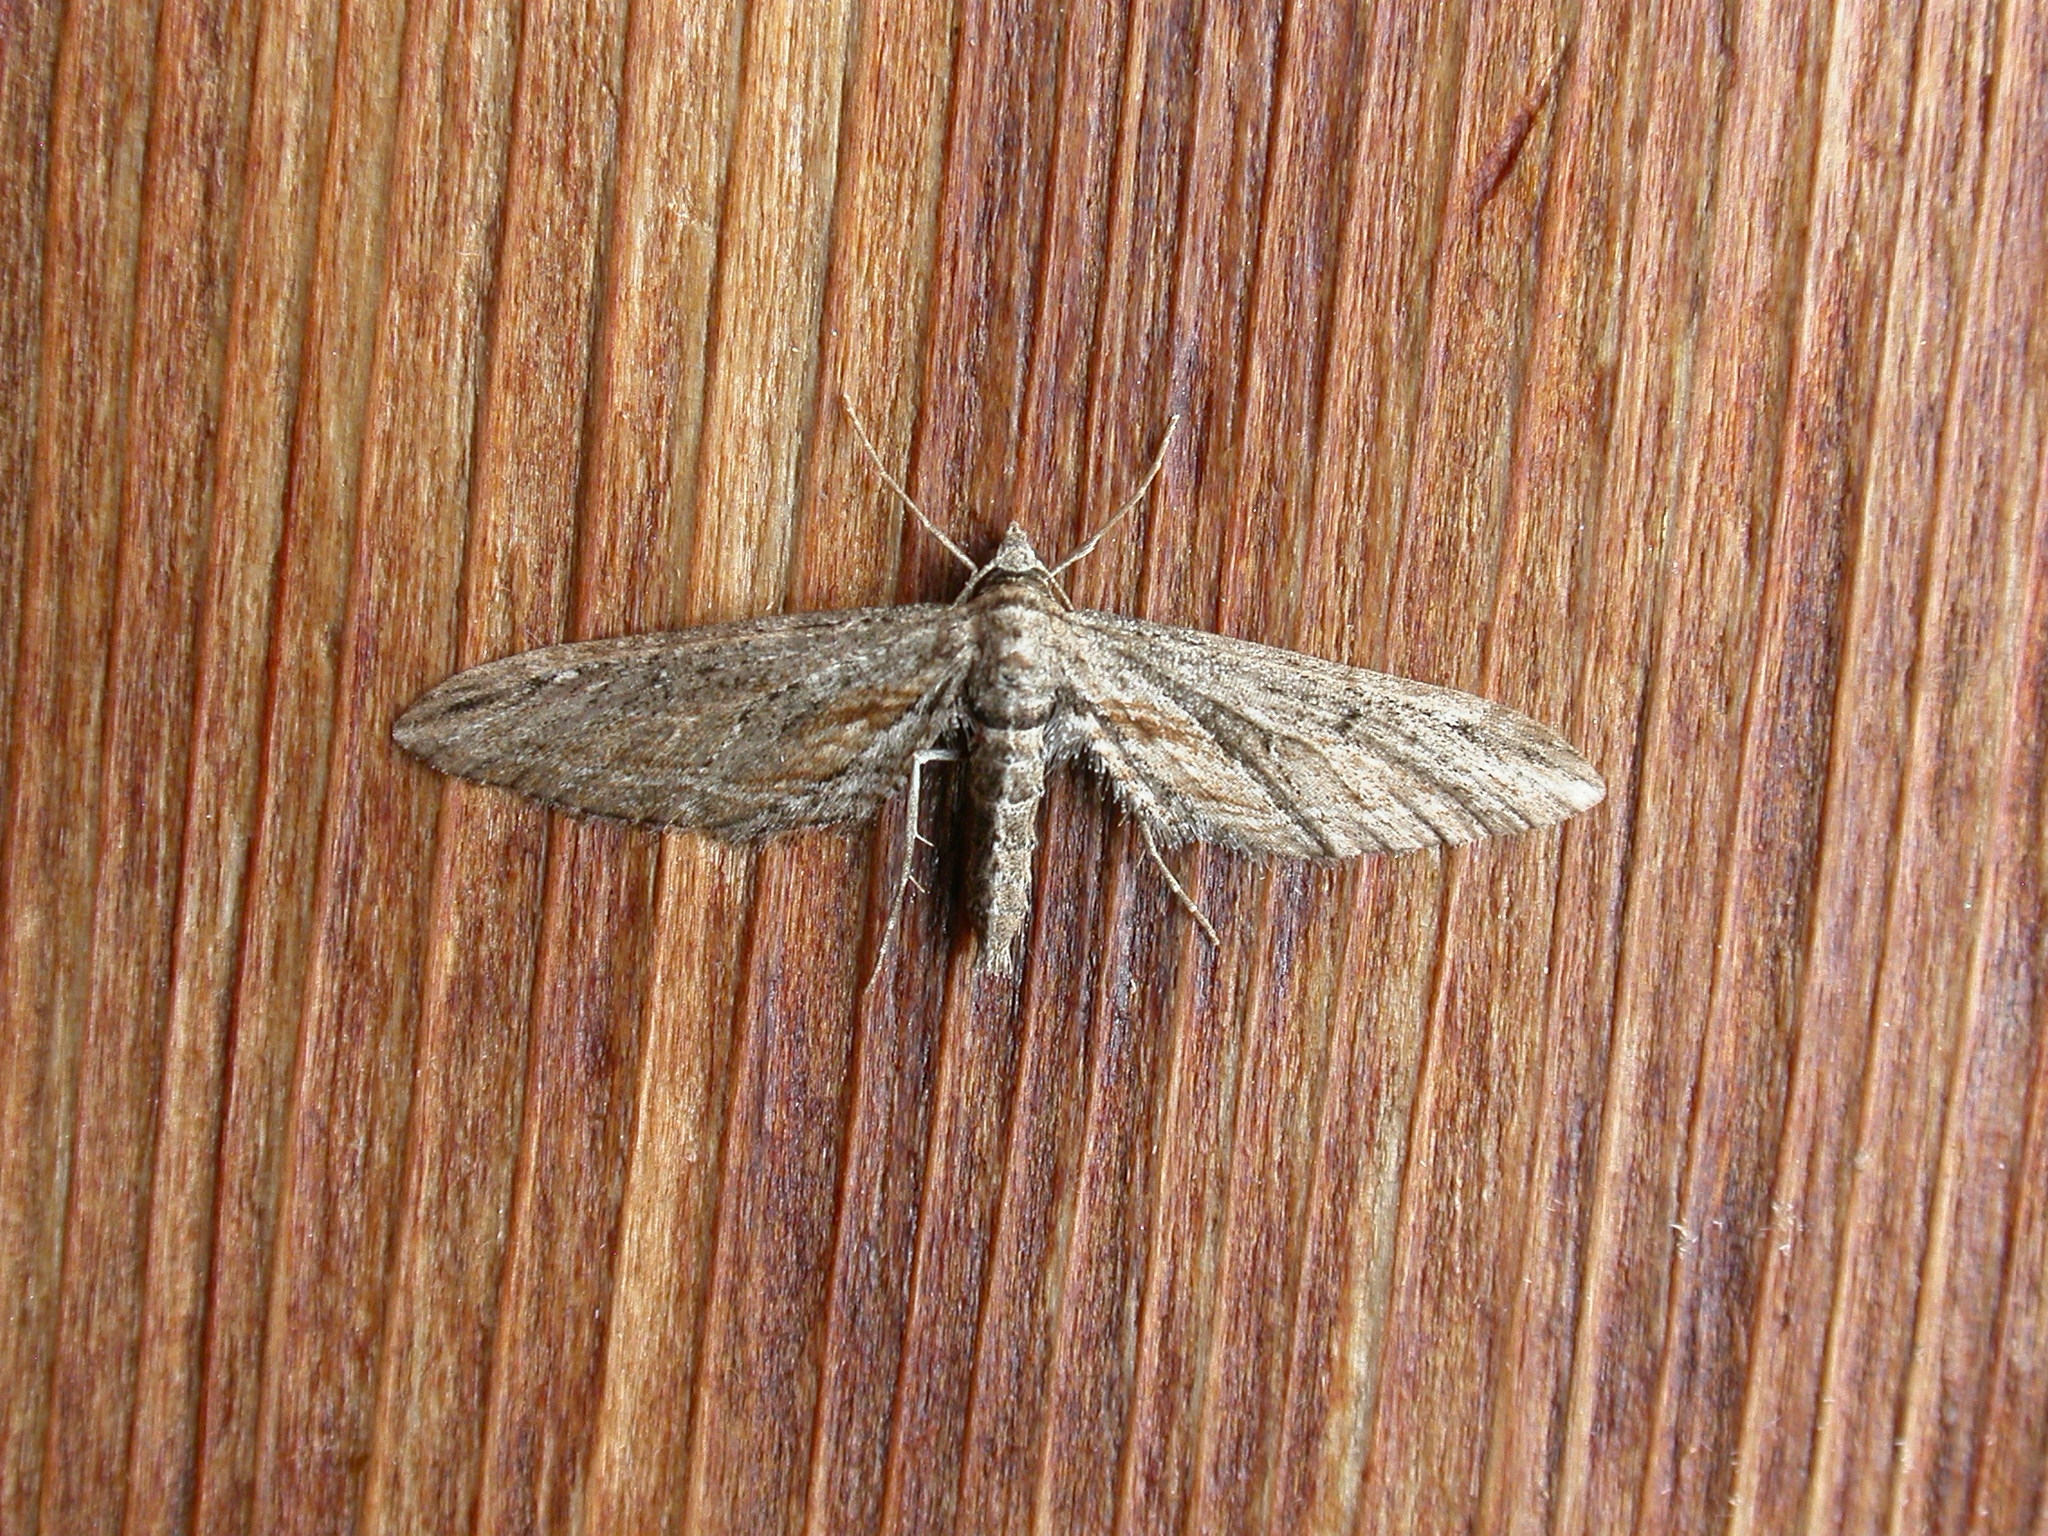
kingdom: Animalia
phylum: Arthropoda
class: Insecta
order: Lepidoptera
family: Geometridae
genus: Eupithecia
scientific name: Eupithecia acutipennis
